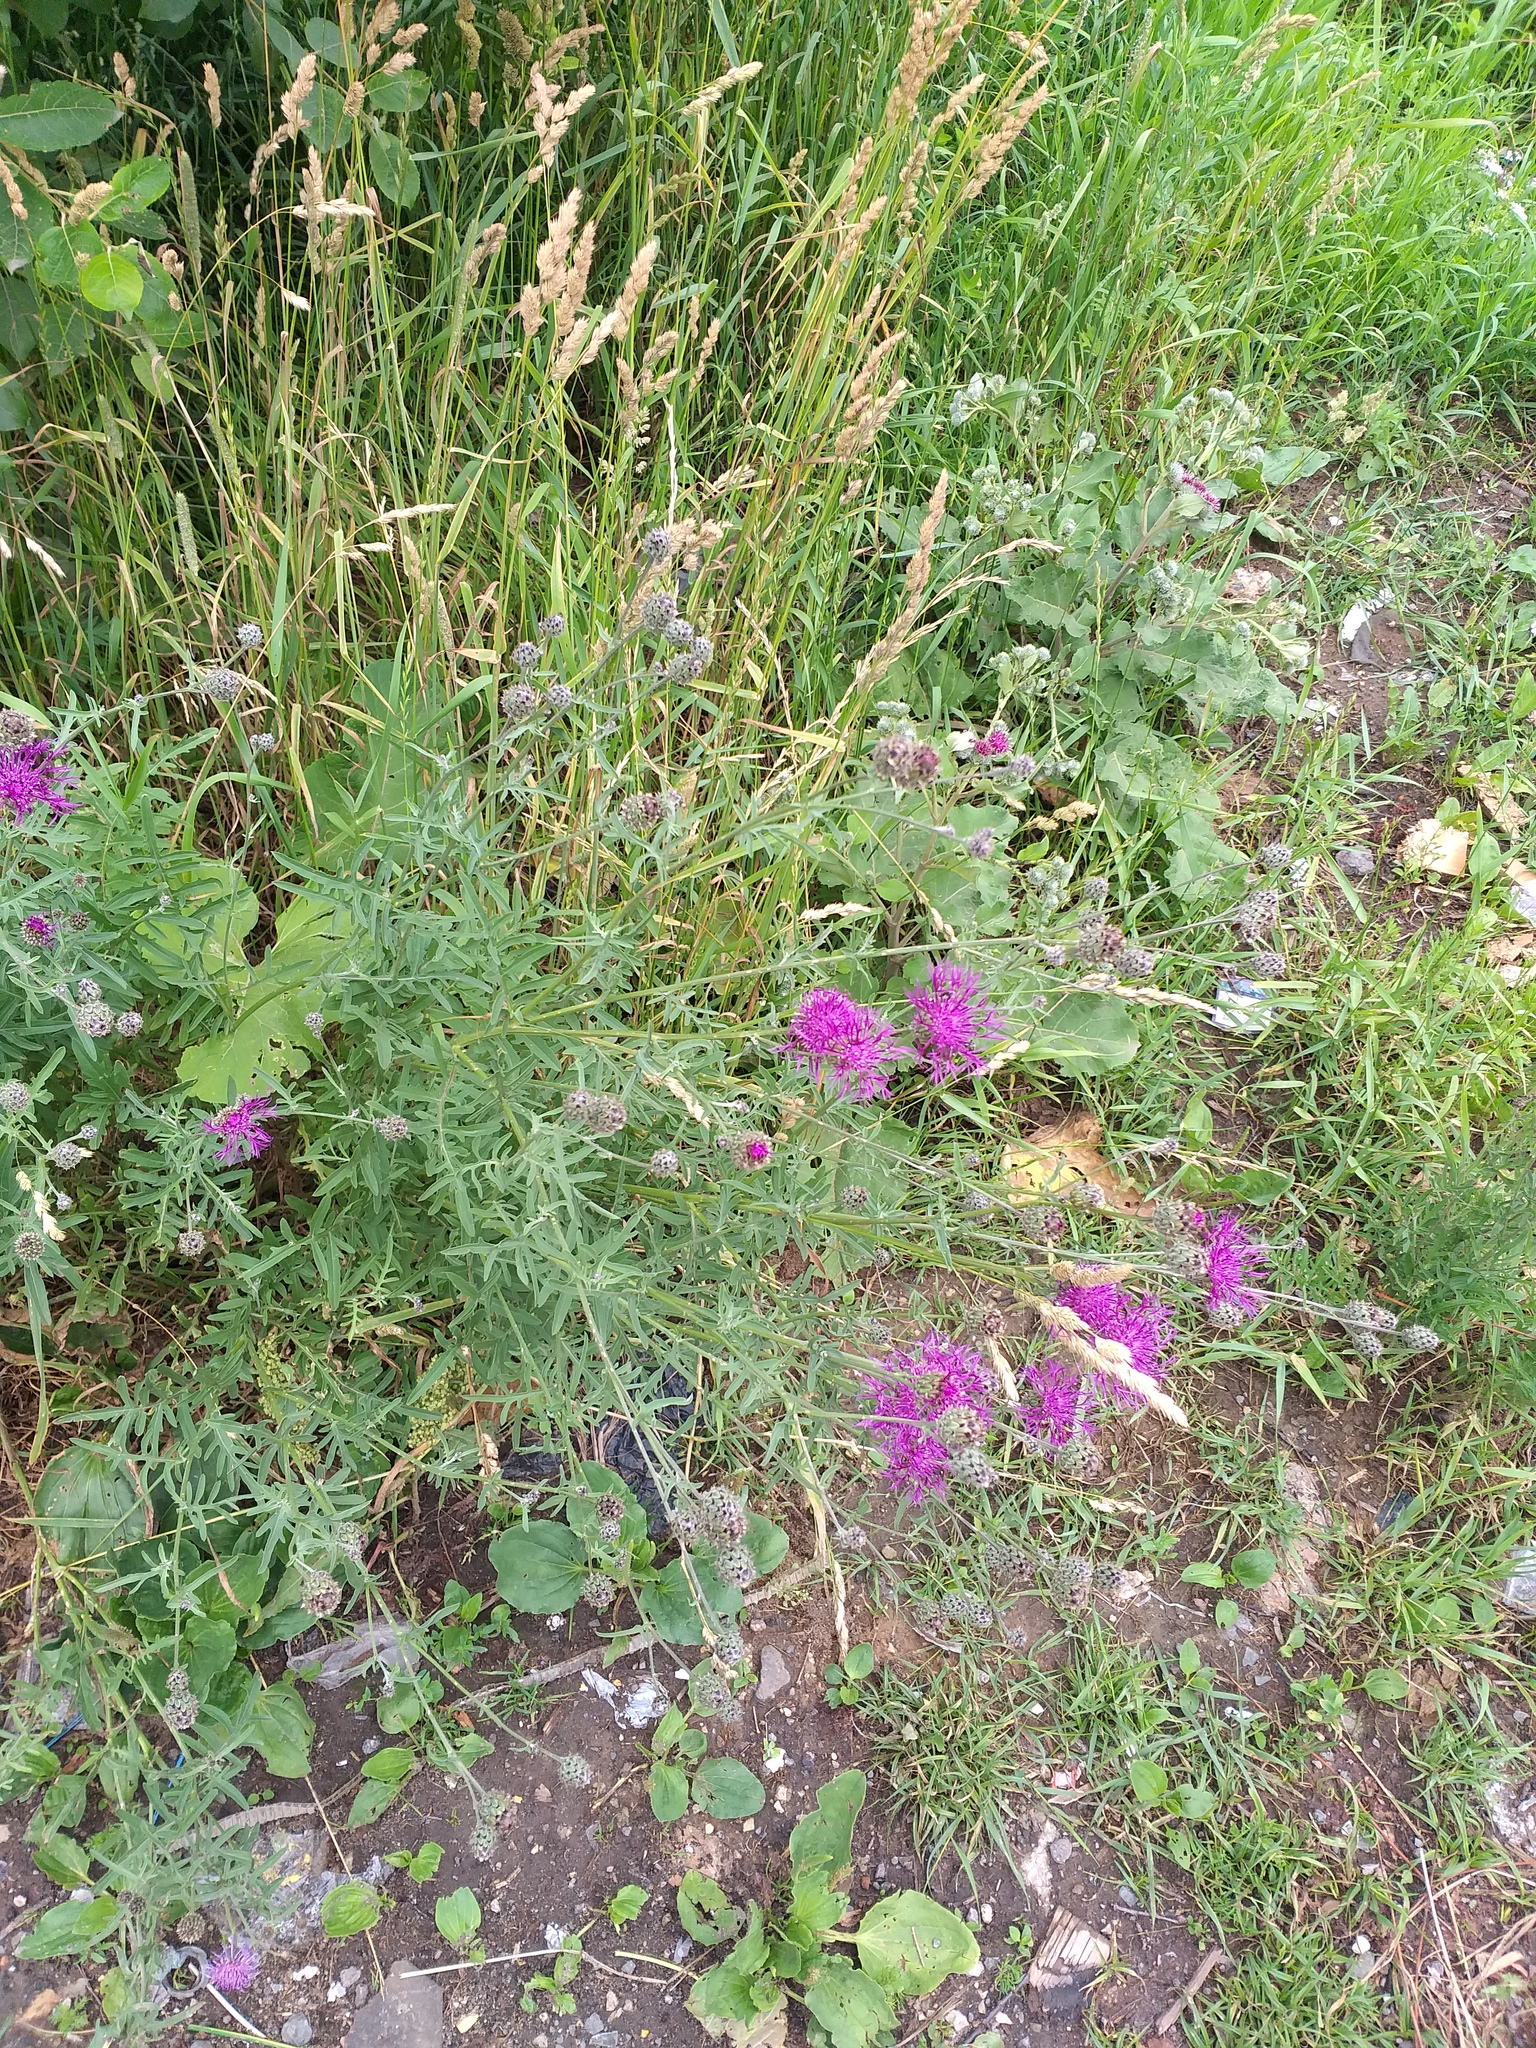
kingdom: Plantae
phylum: Tracheophyta
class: Magnoliopsida
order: Asterales
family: Asteraceae
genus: Centaurea
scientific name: Centaurea scabiosa
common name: Greater knapweed
